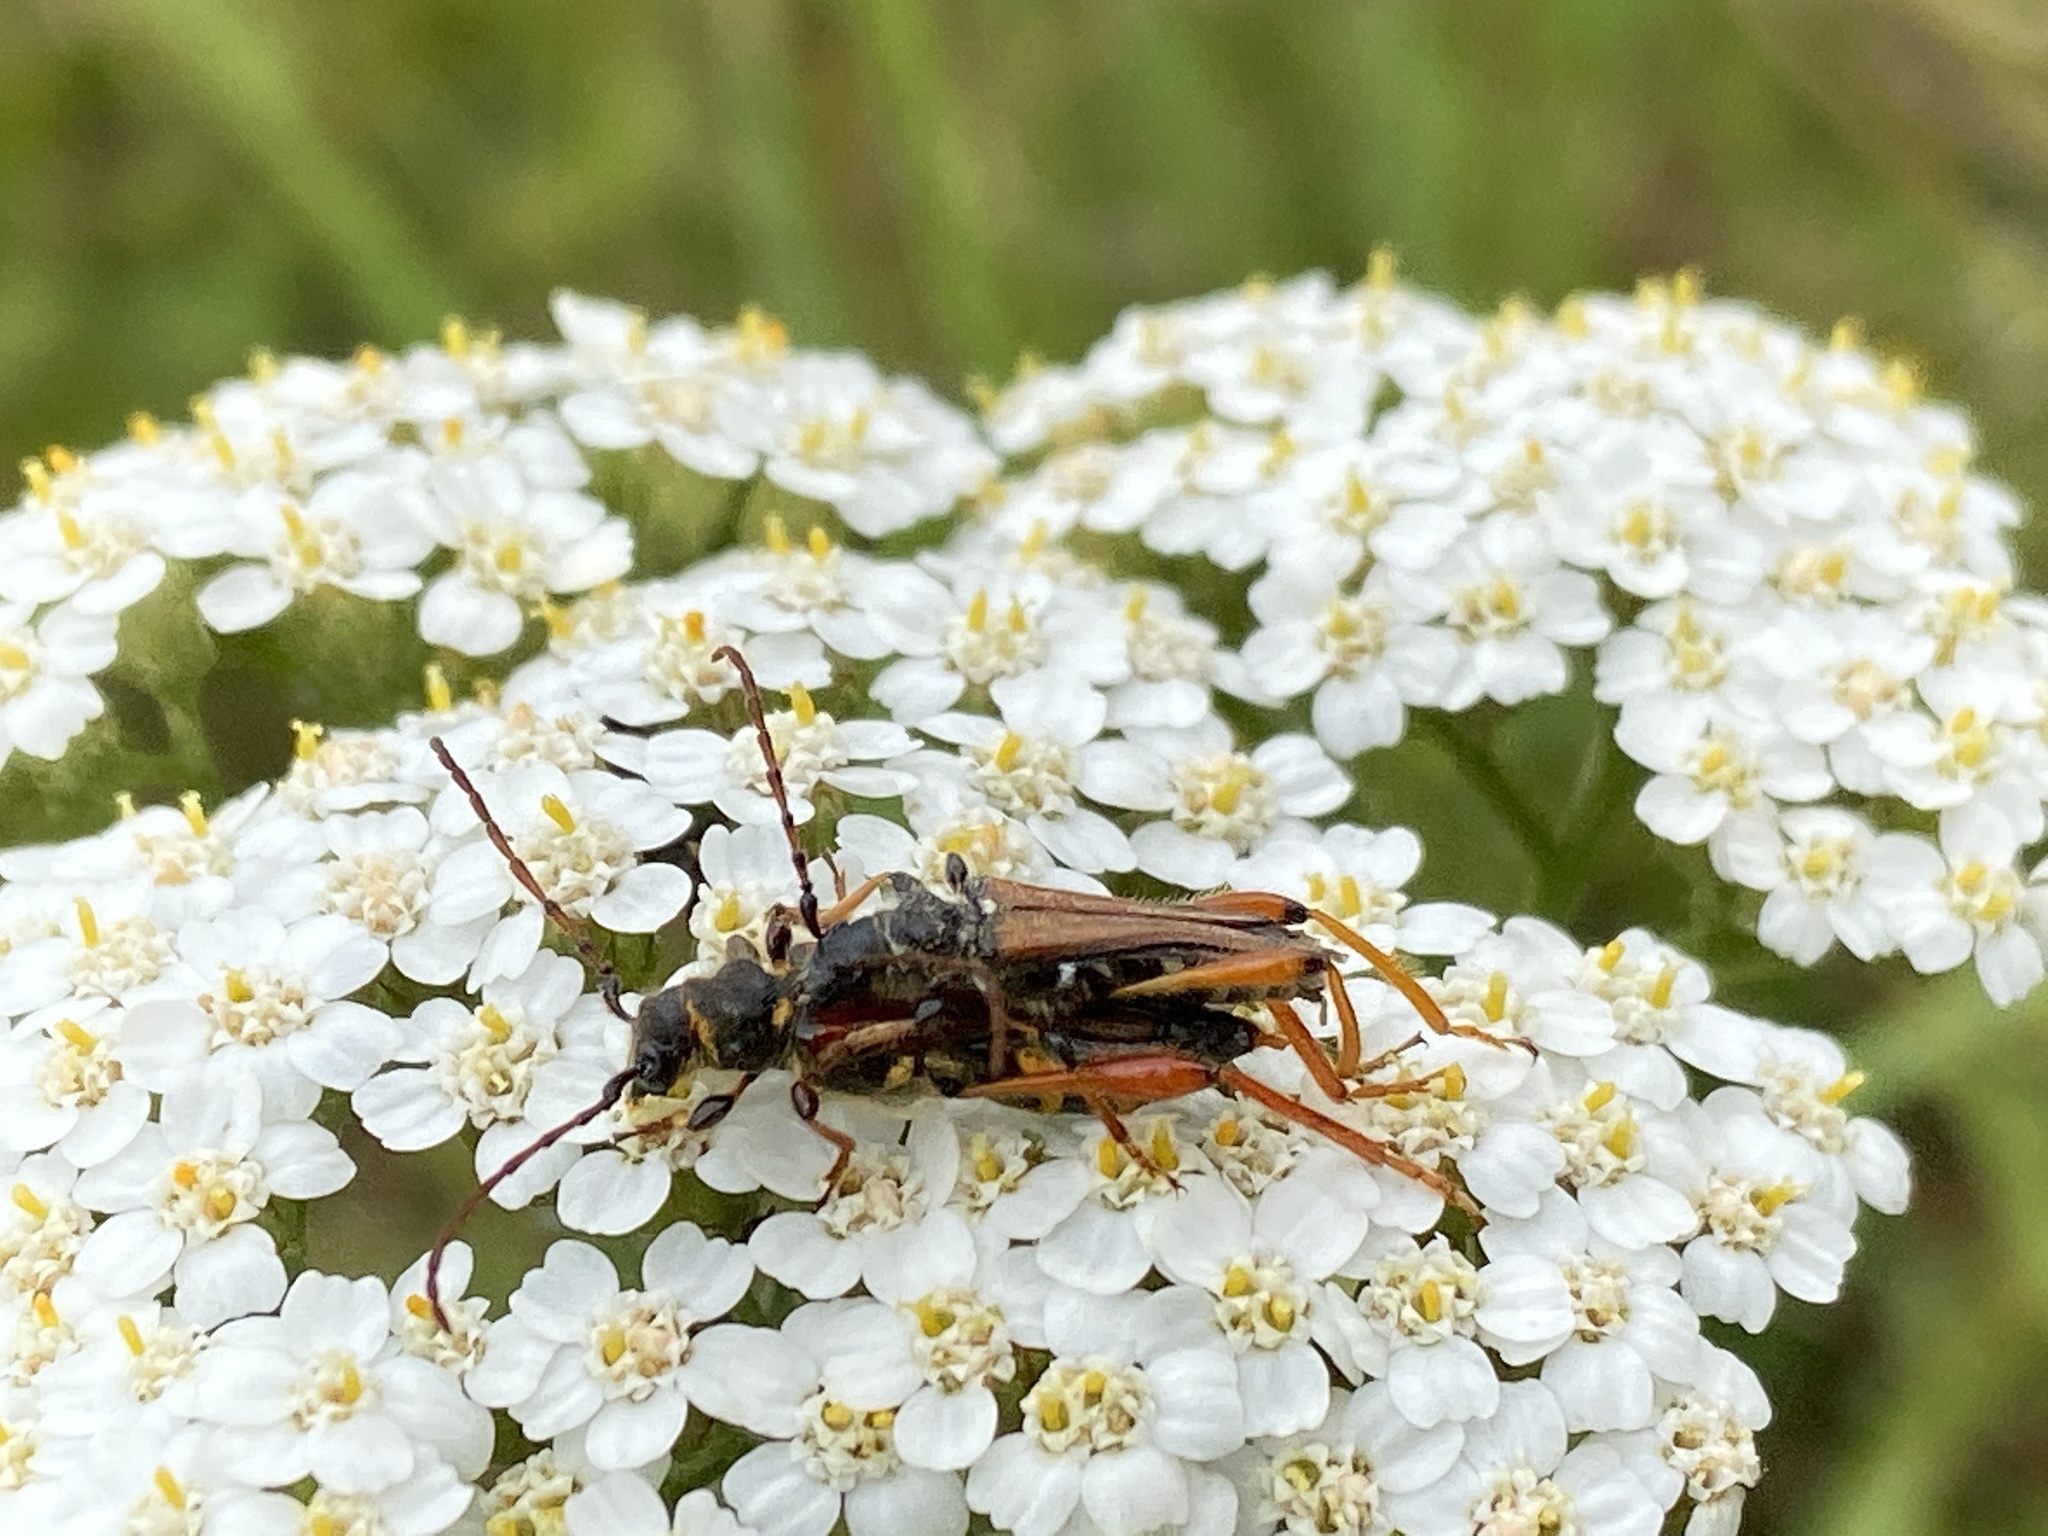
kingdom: Animalia
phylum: Arthropoda
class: Insecta
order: Coleoptera
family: Cerambycidae
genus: Stenopterus
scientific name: Stenopterus rufus
